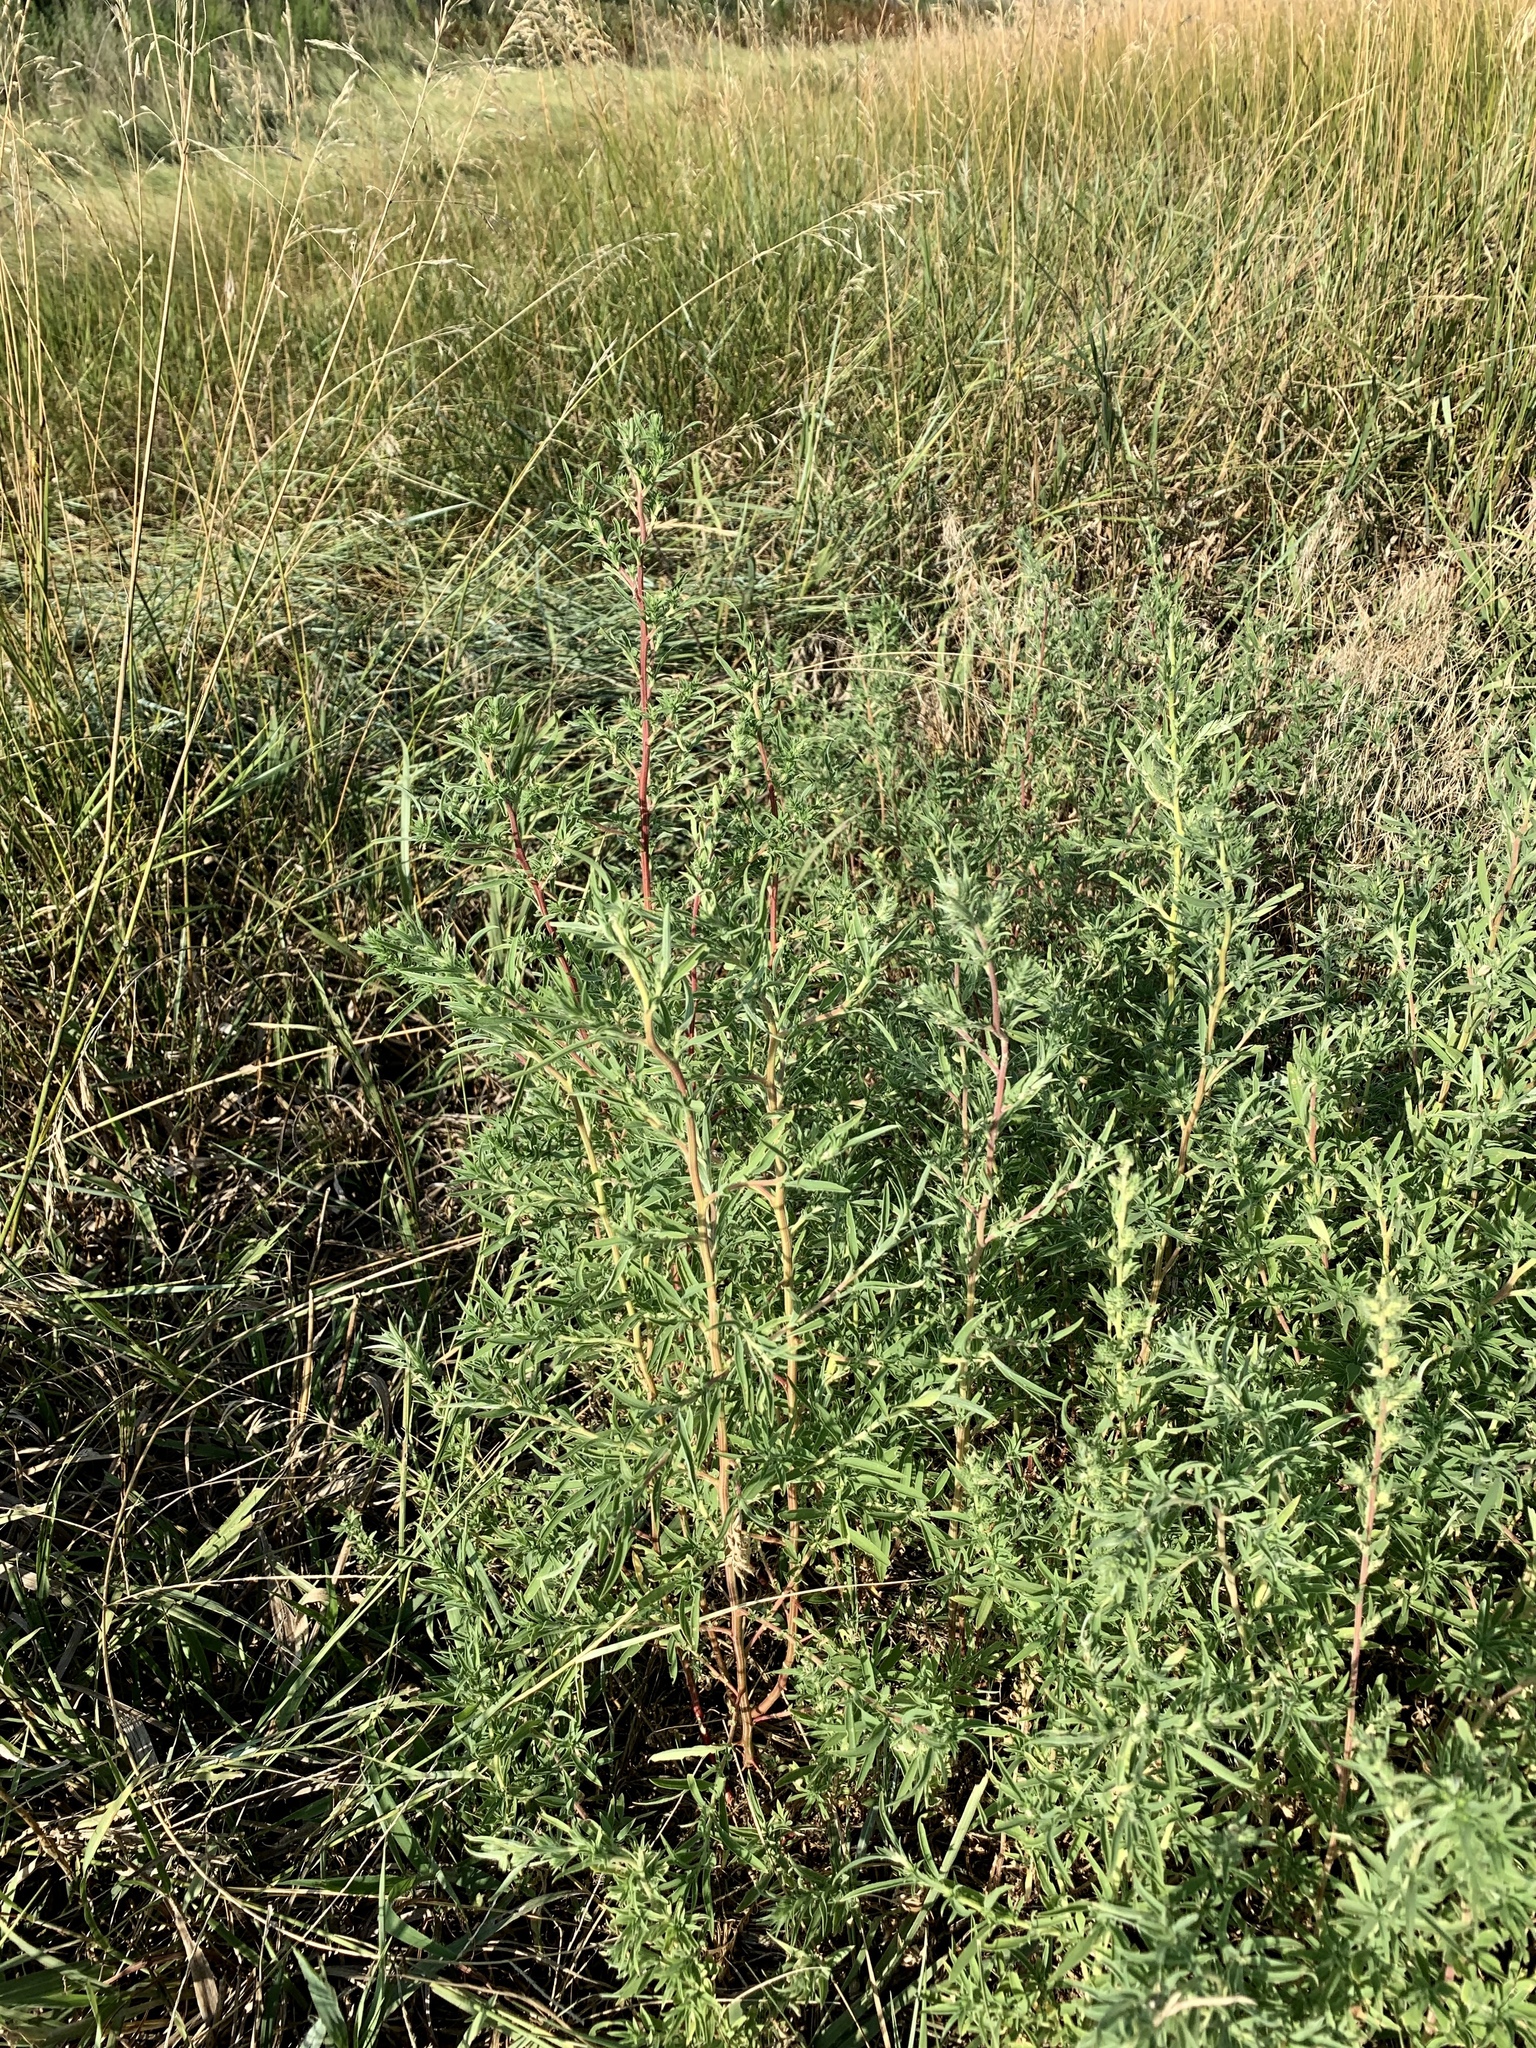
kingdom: Plantae
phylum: Tracheophyta
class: Magnoliopsida
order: Caryophyllales
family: Amaranthaceae
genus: Bassia
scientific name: Bassia scoparia
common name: Belvedere
